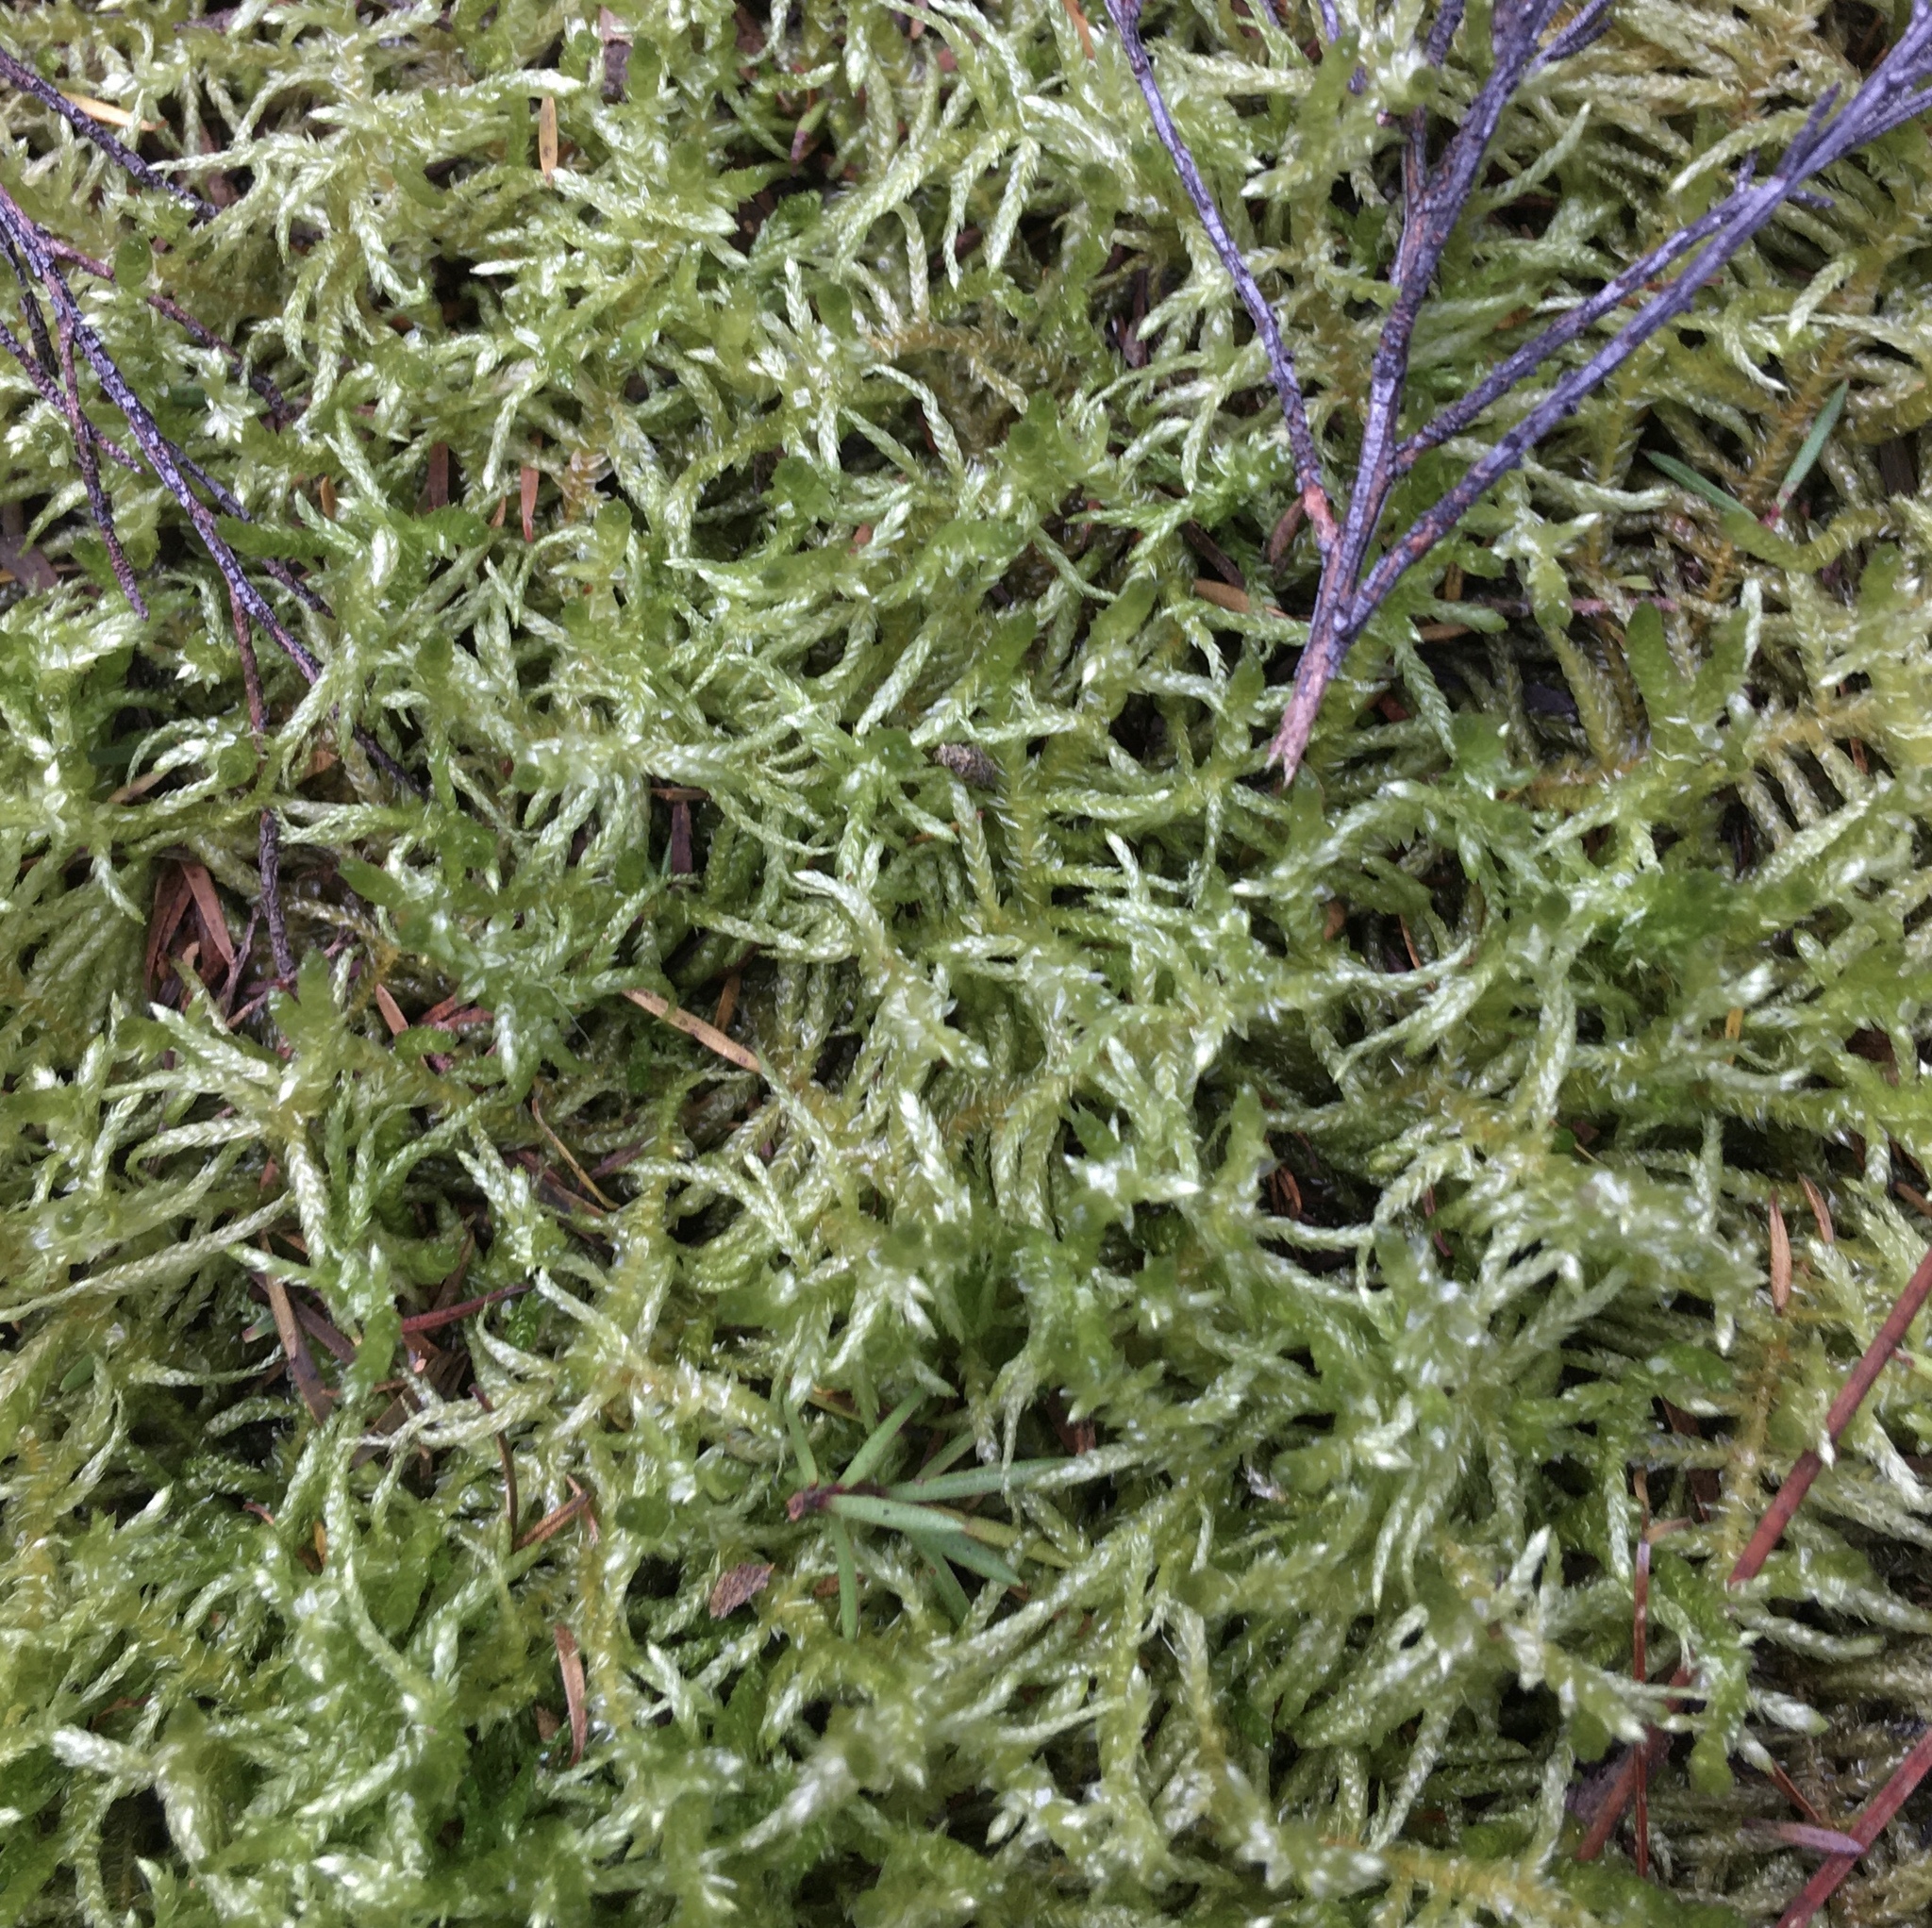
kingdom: Plantae
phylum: Bryophyta
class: Bryopsida
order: Hypnales
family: Brachytheciaceae
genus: Pseudoscleropodium
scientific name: Pseudoscleropodium purum
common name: Neat feather-moss
